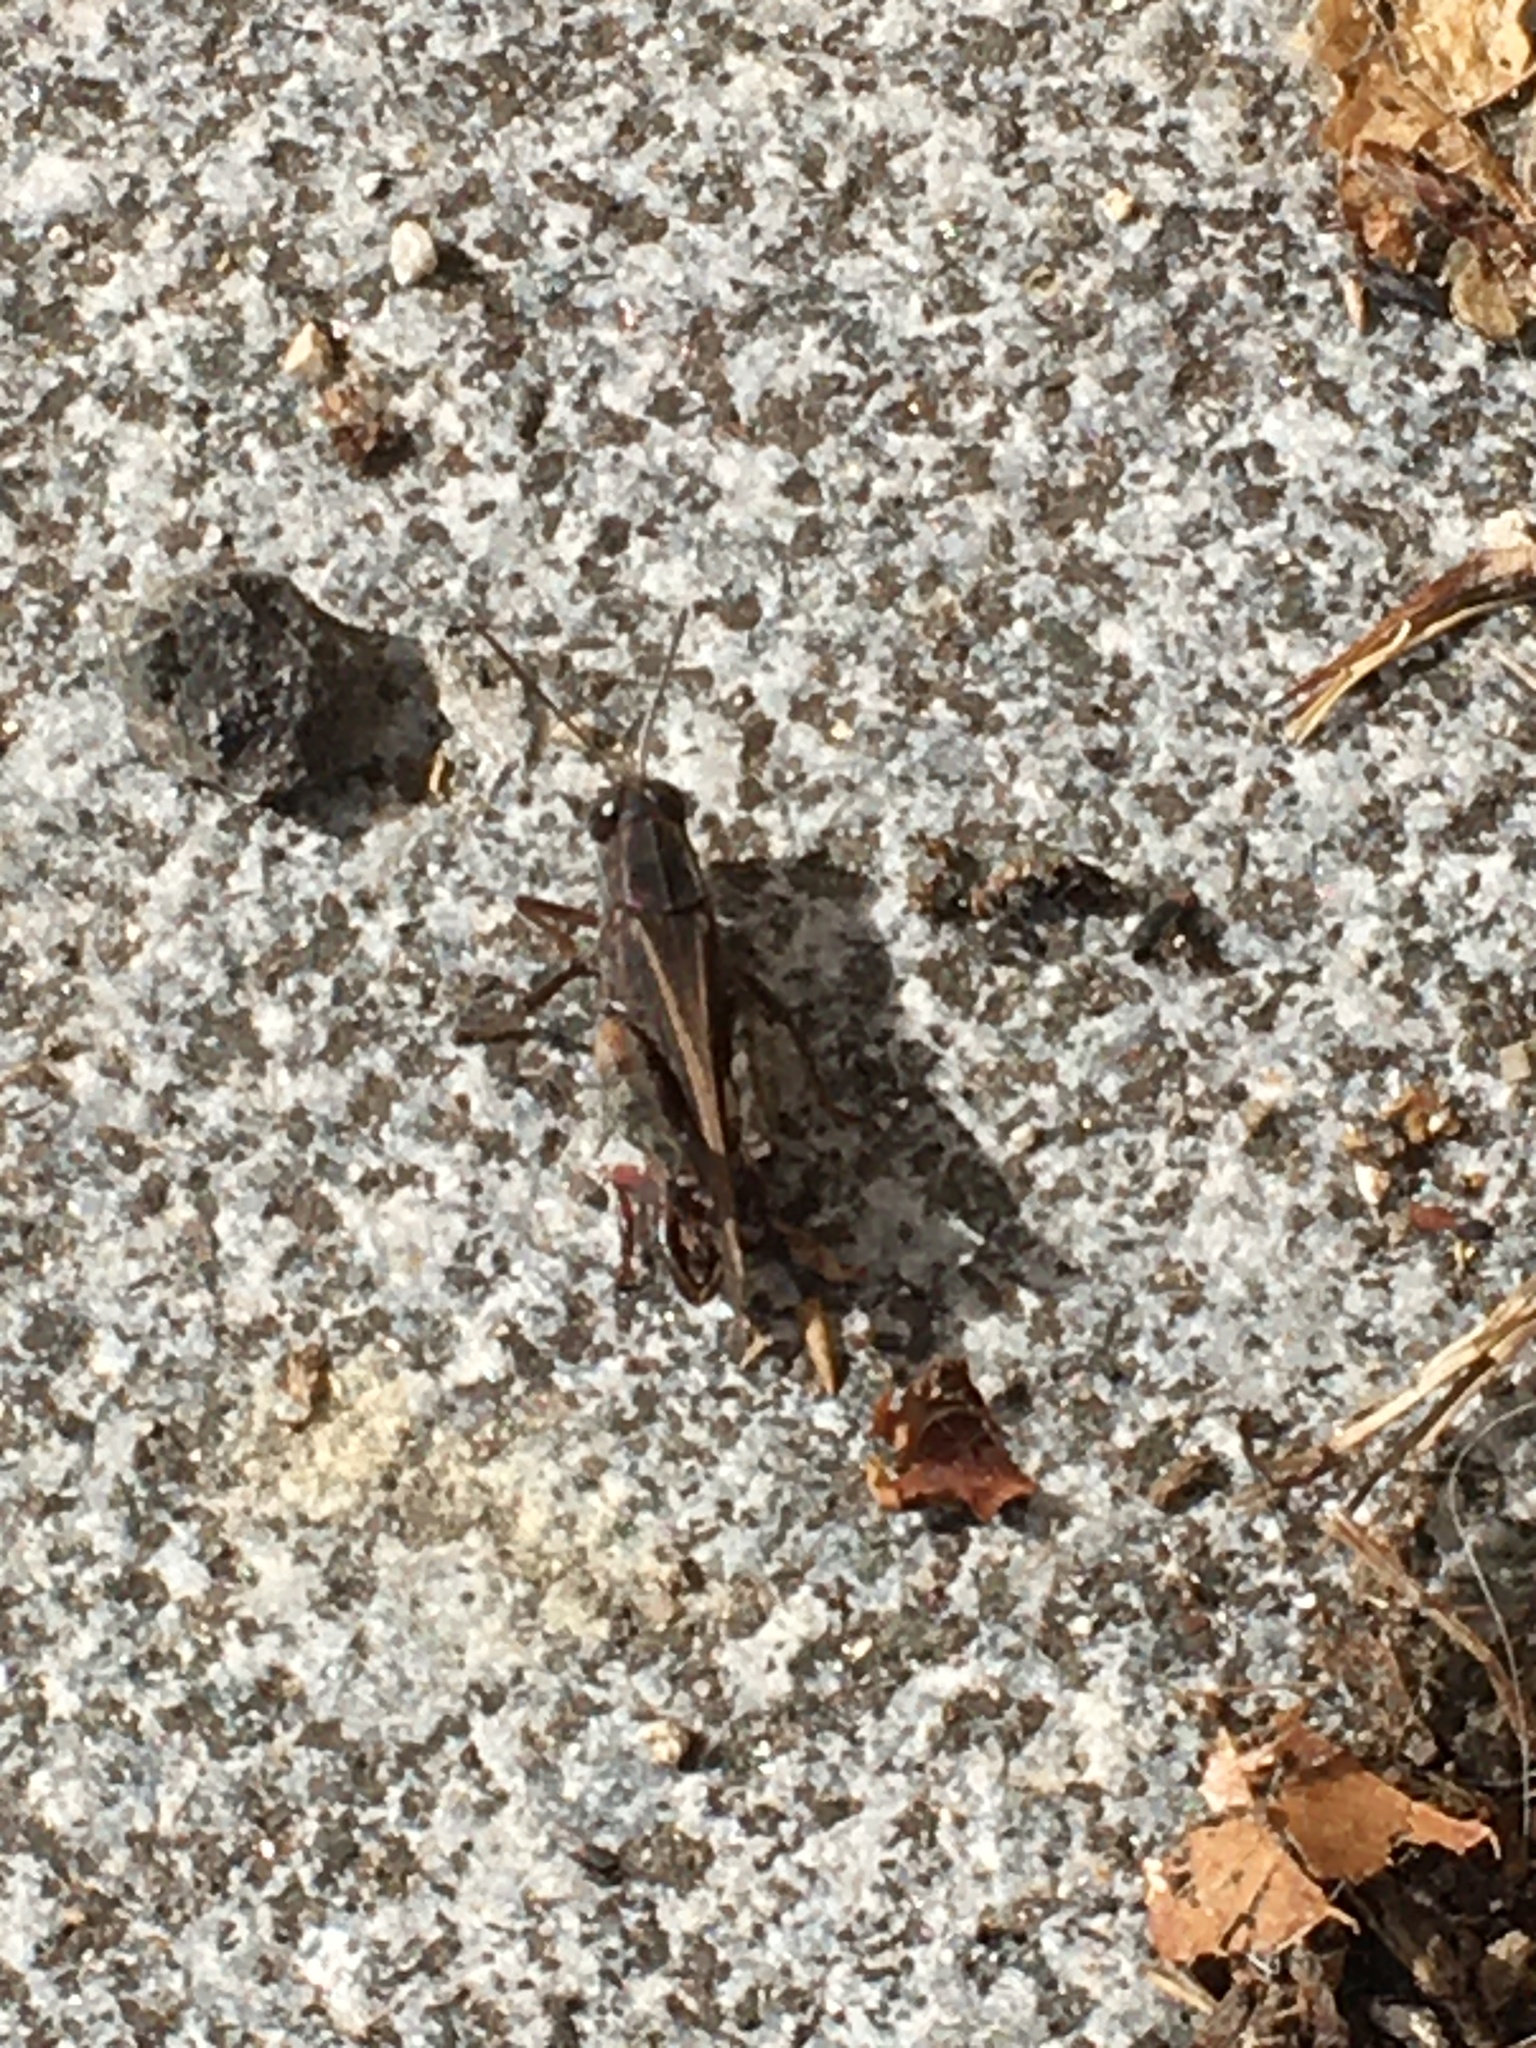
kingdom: Animalia
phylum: Arthropoda
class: Insecta
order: Orthoptera
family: Acrididae
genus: Calliptamus
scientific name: Calliptamus italicus
